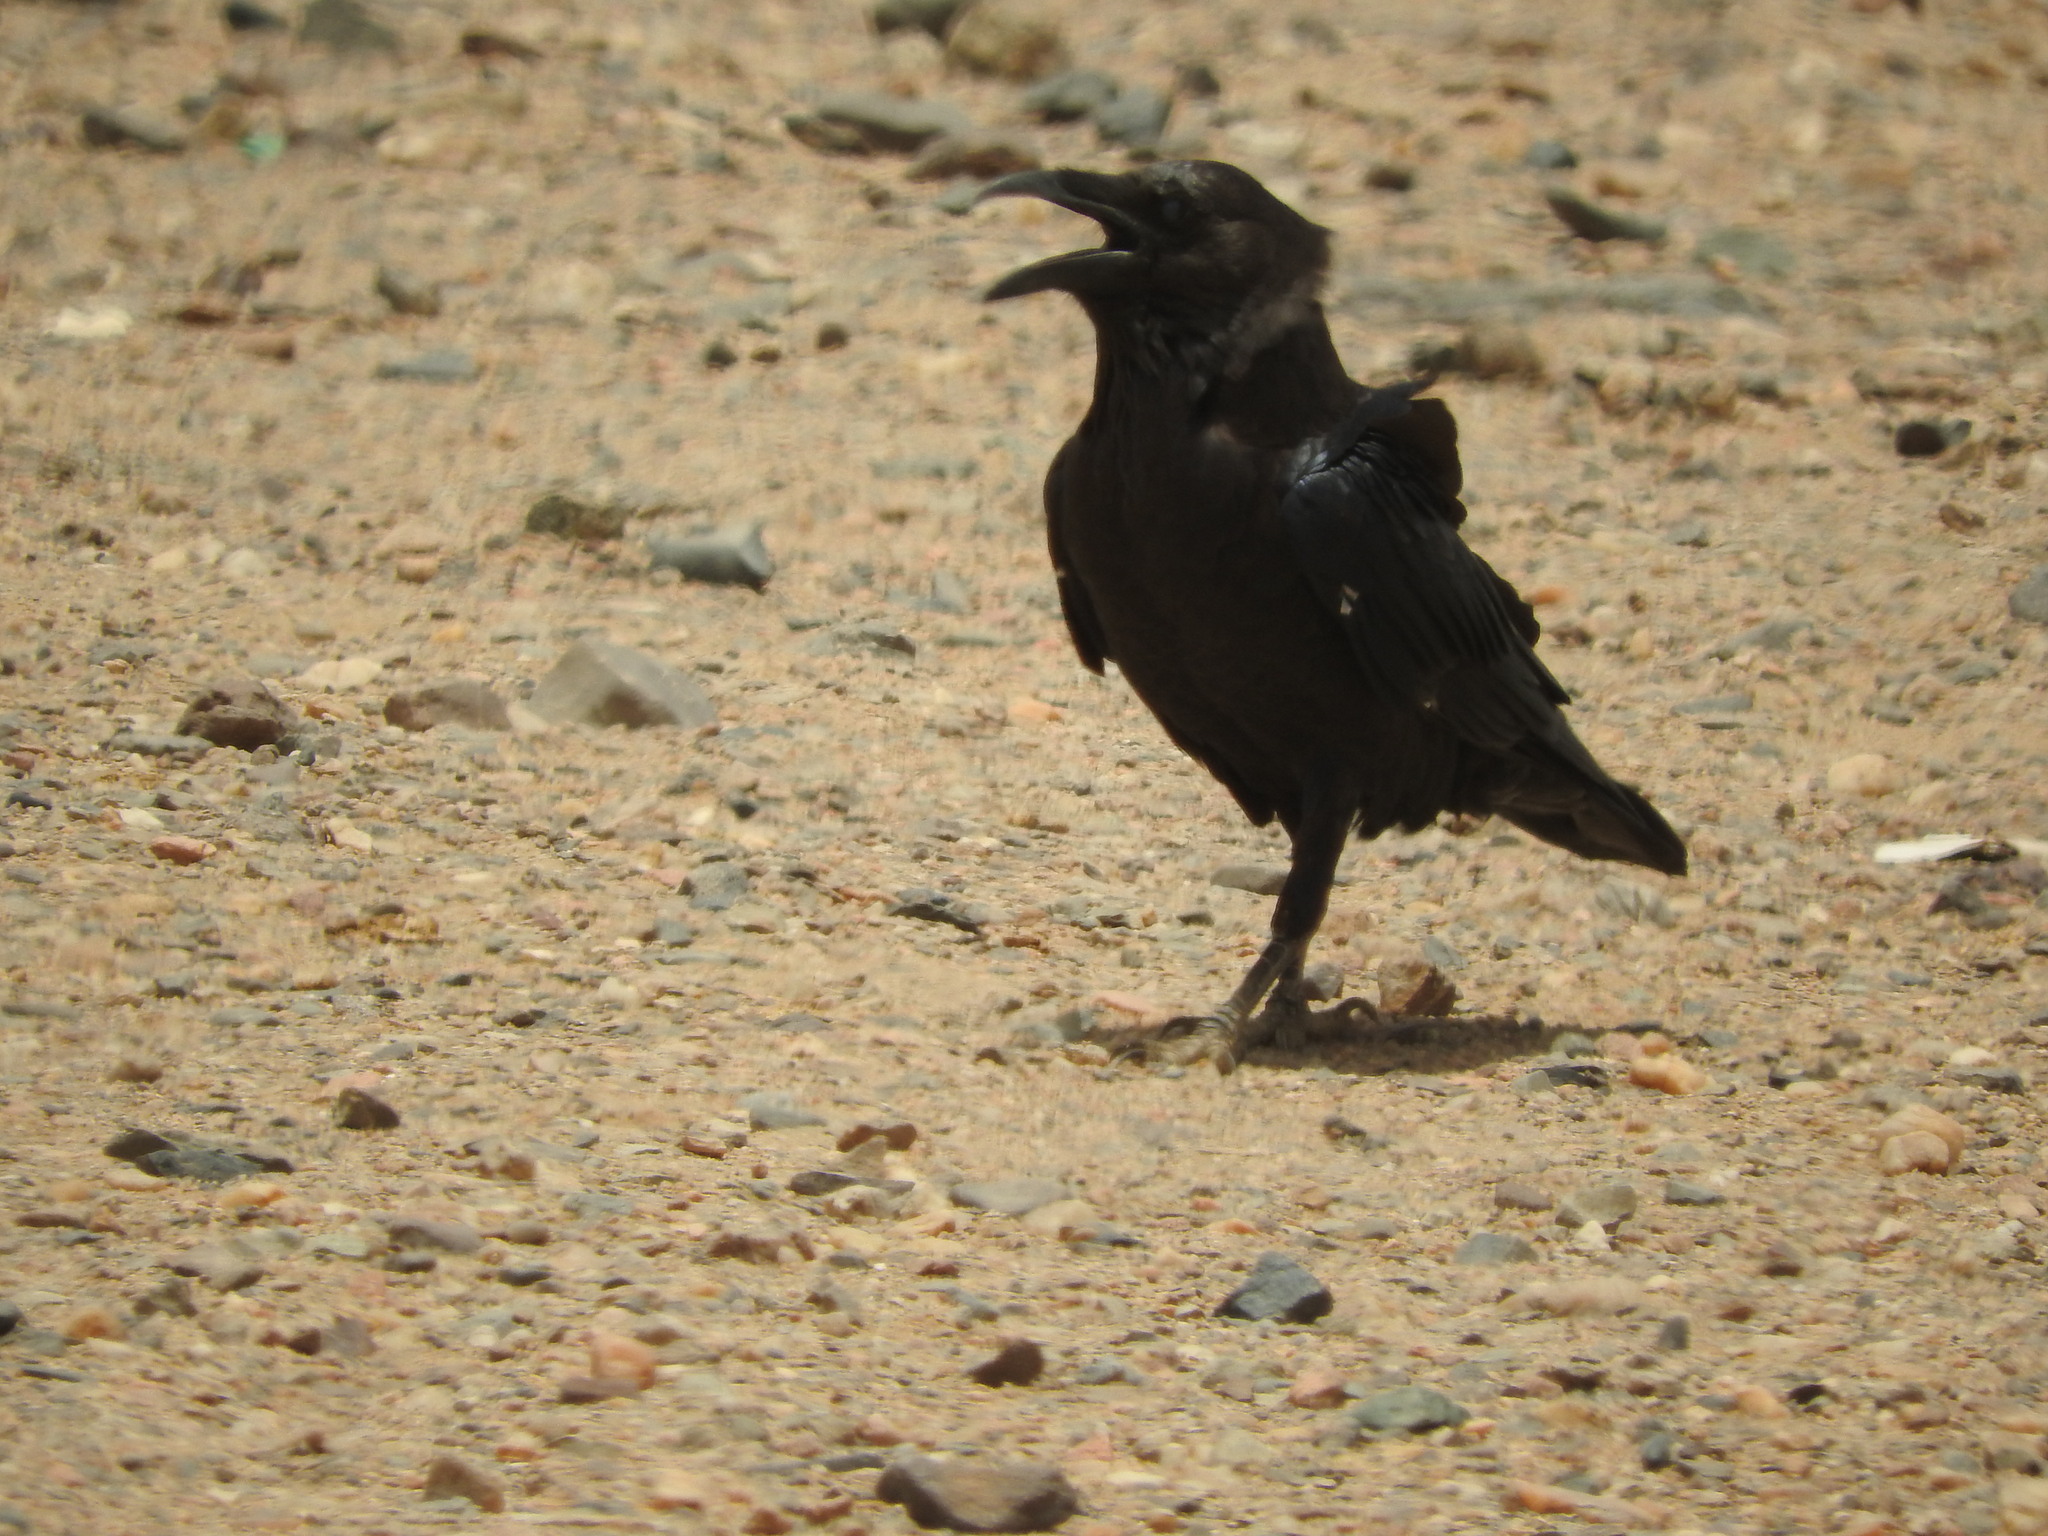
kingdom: Animalia
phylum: Chordata
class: Aves
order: Passeriformes
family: Corvidae
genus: Corvus
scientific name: Corvus ruficollis
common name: Brown-necked raven
